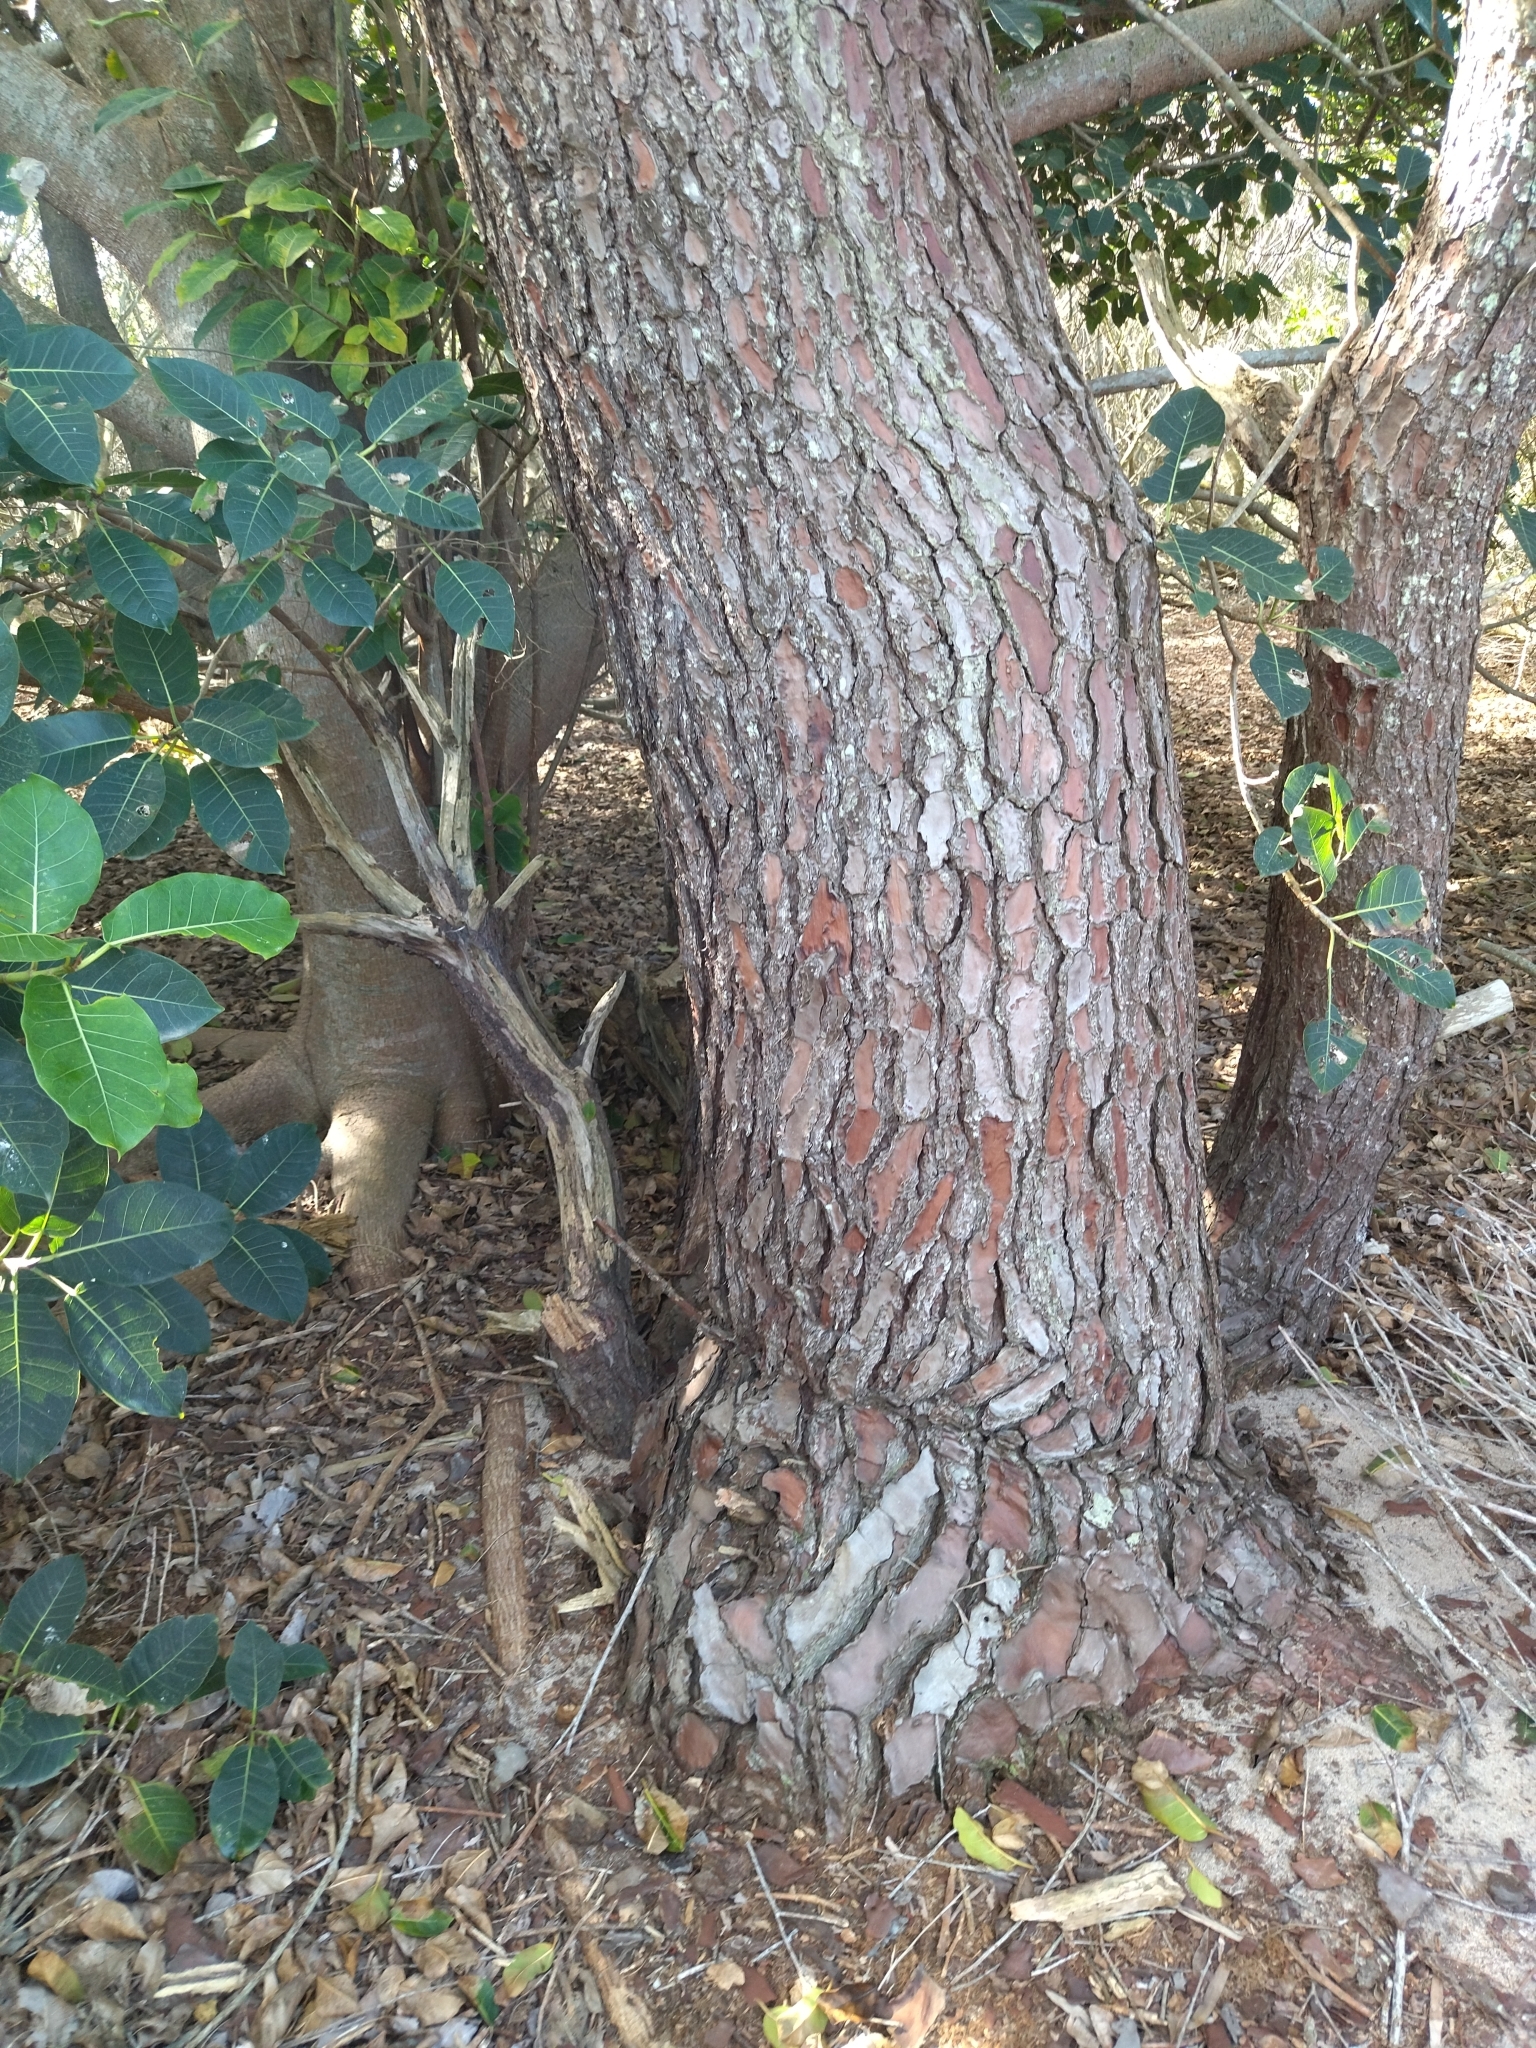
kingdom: Plantae
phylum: Tracheophyta
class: Pinopsida
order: Pinales
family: Pinaceae
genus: Pinus
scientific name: Pinus pinaster
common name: Maritime pine
